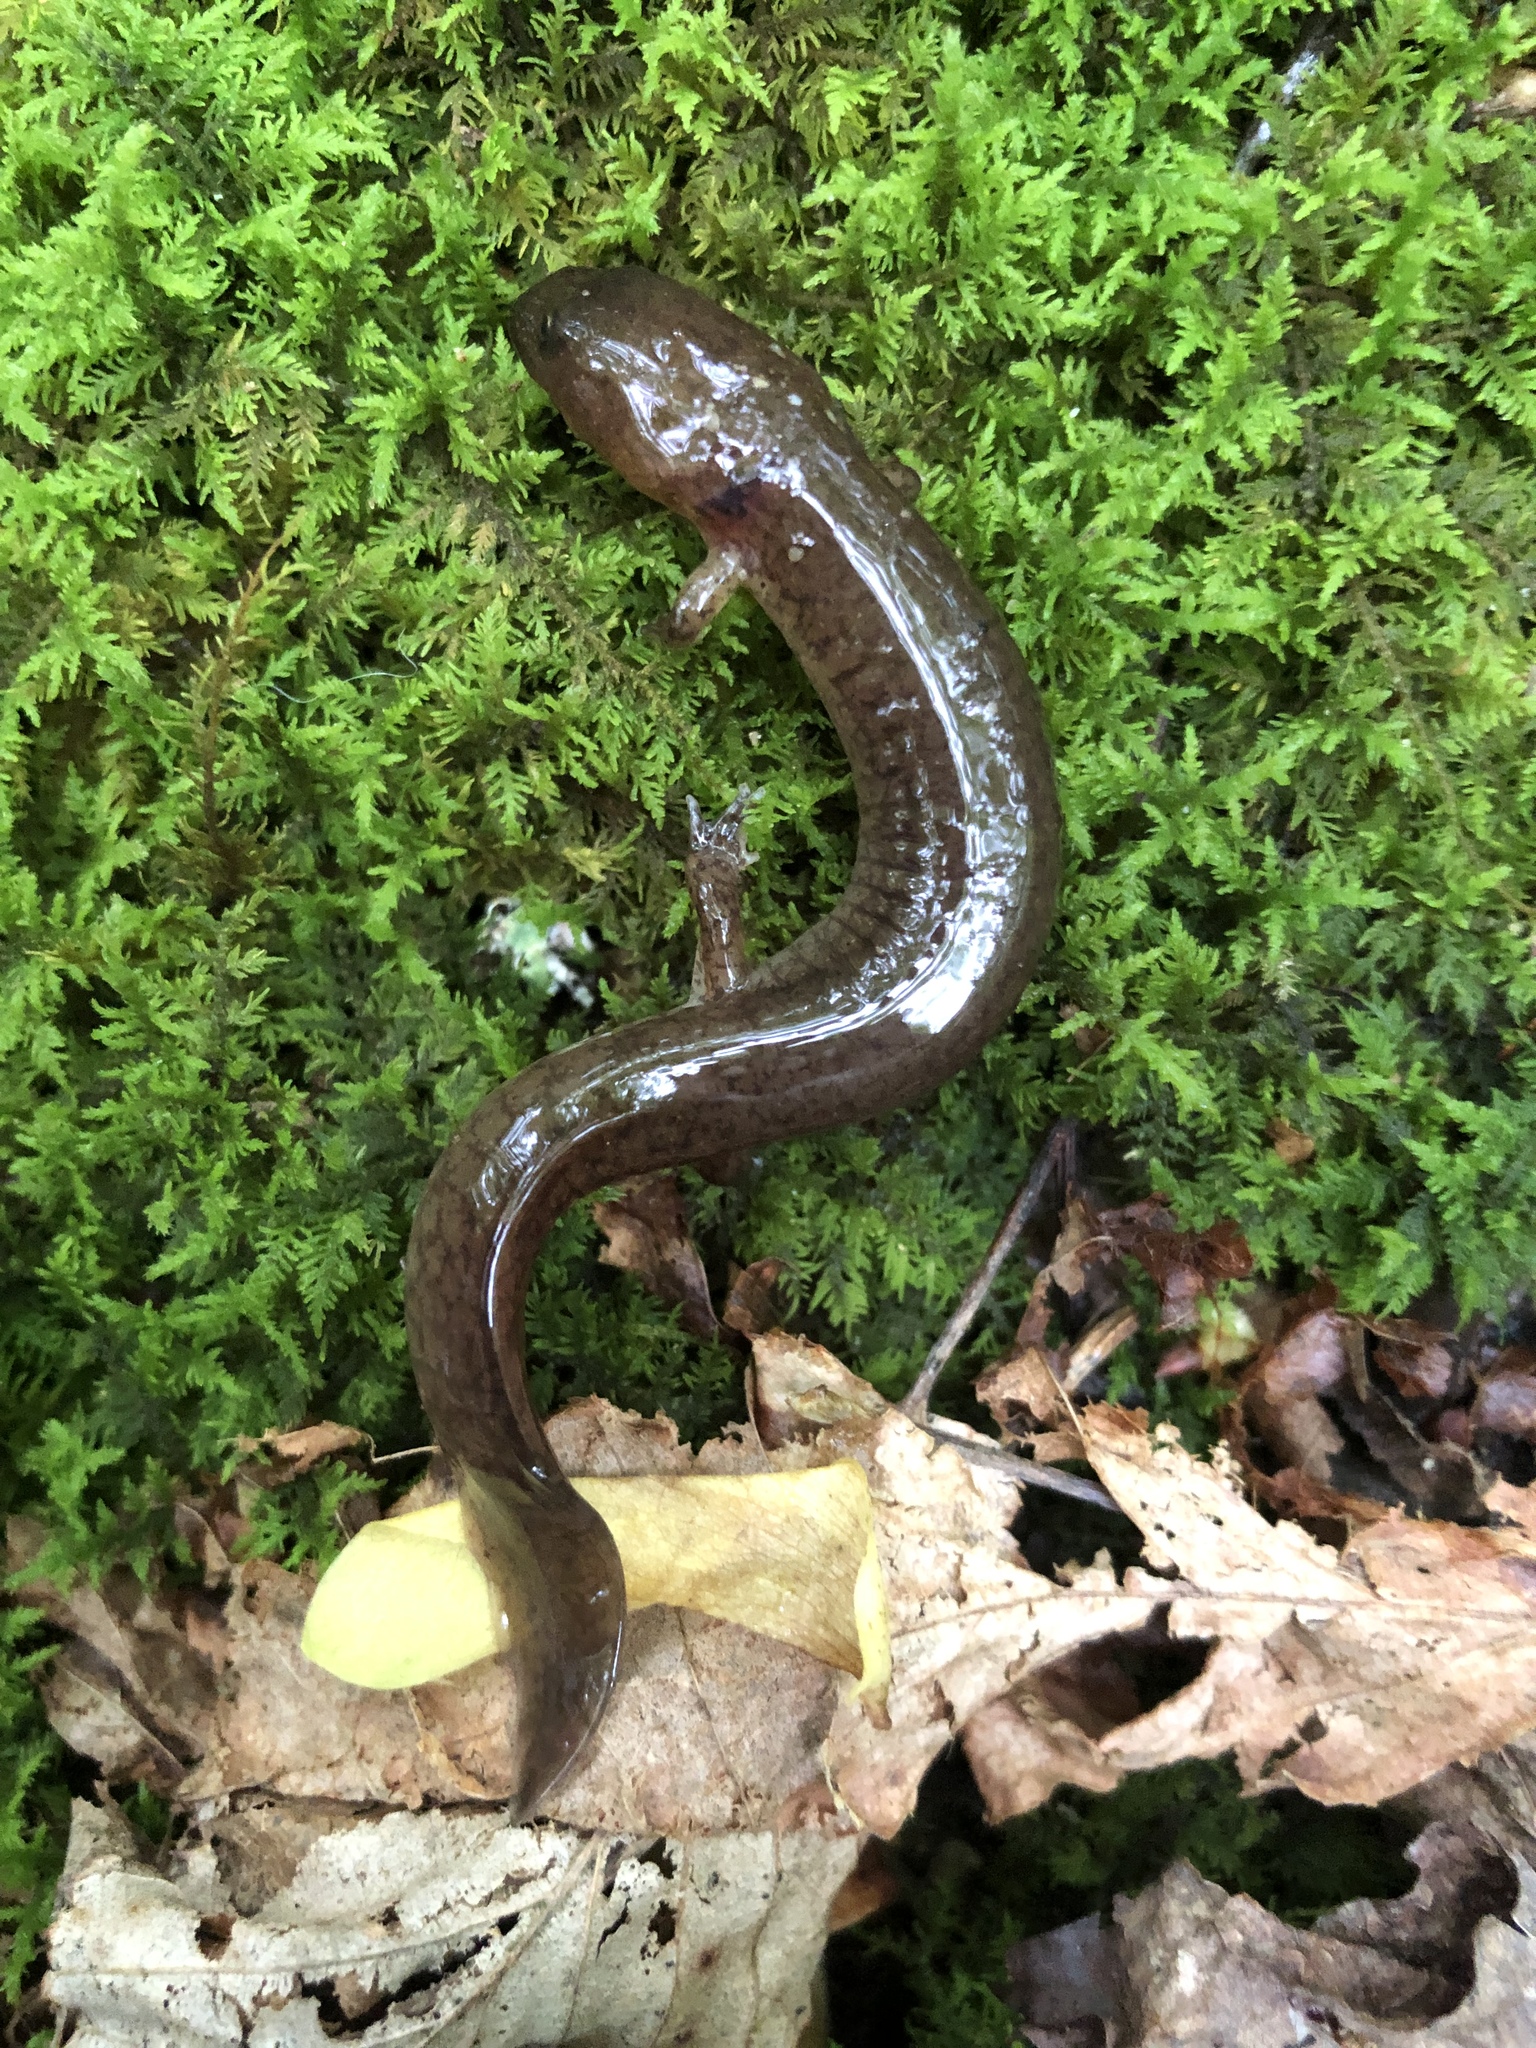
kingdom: Animalia
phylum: Chordata
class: Amphibia
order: Caudata
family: Plethodontidae
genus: Gyrinophilus
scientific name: Gyrinophilus porphyriticus
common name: Spring salamander
